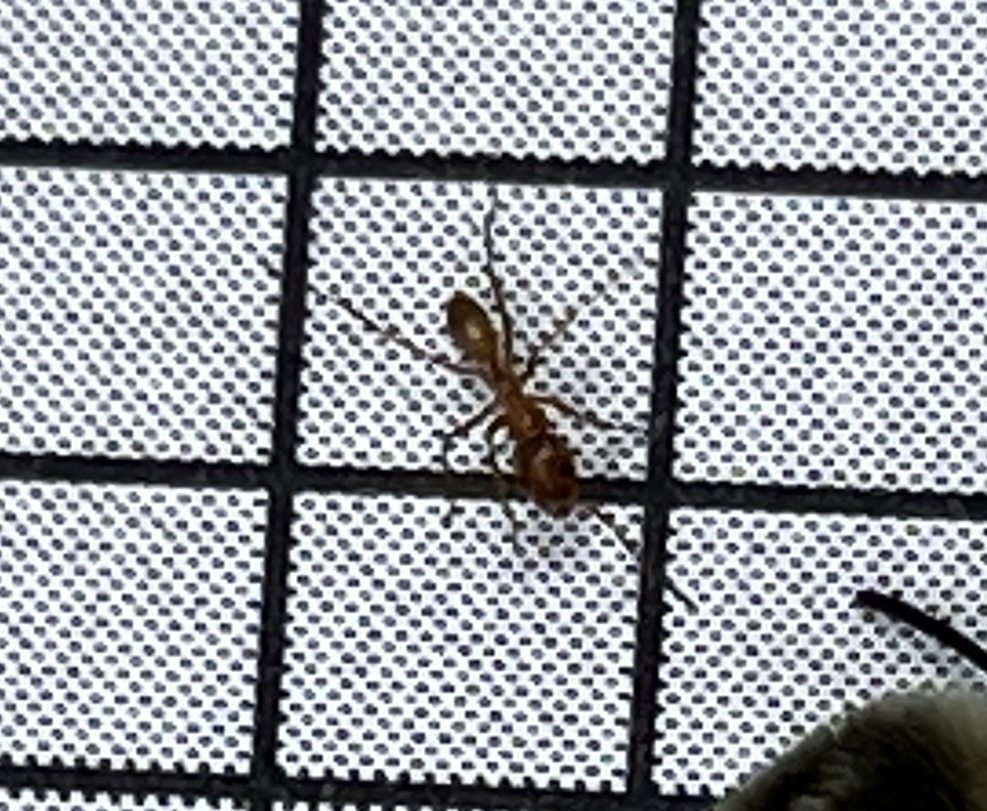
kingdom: Animalia
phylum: Arthropoda
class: Insecta
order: Hymenoptera
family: Formicidae
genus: Dorymyrmex
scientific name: Dorymyrmex bureni
